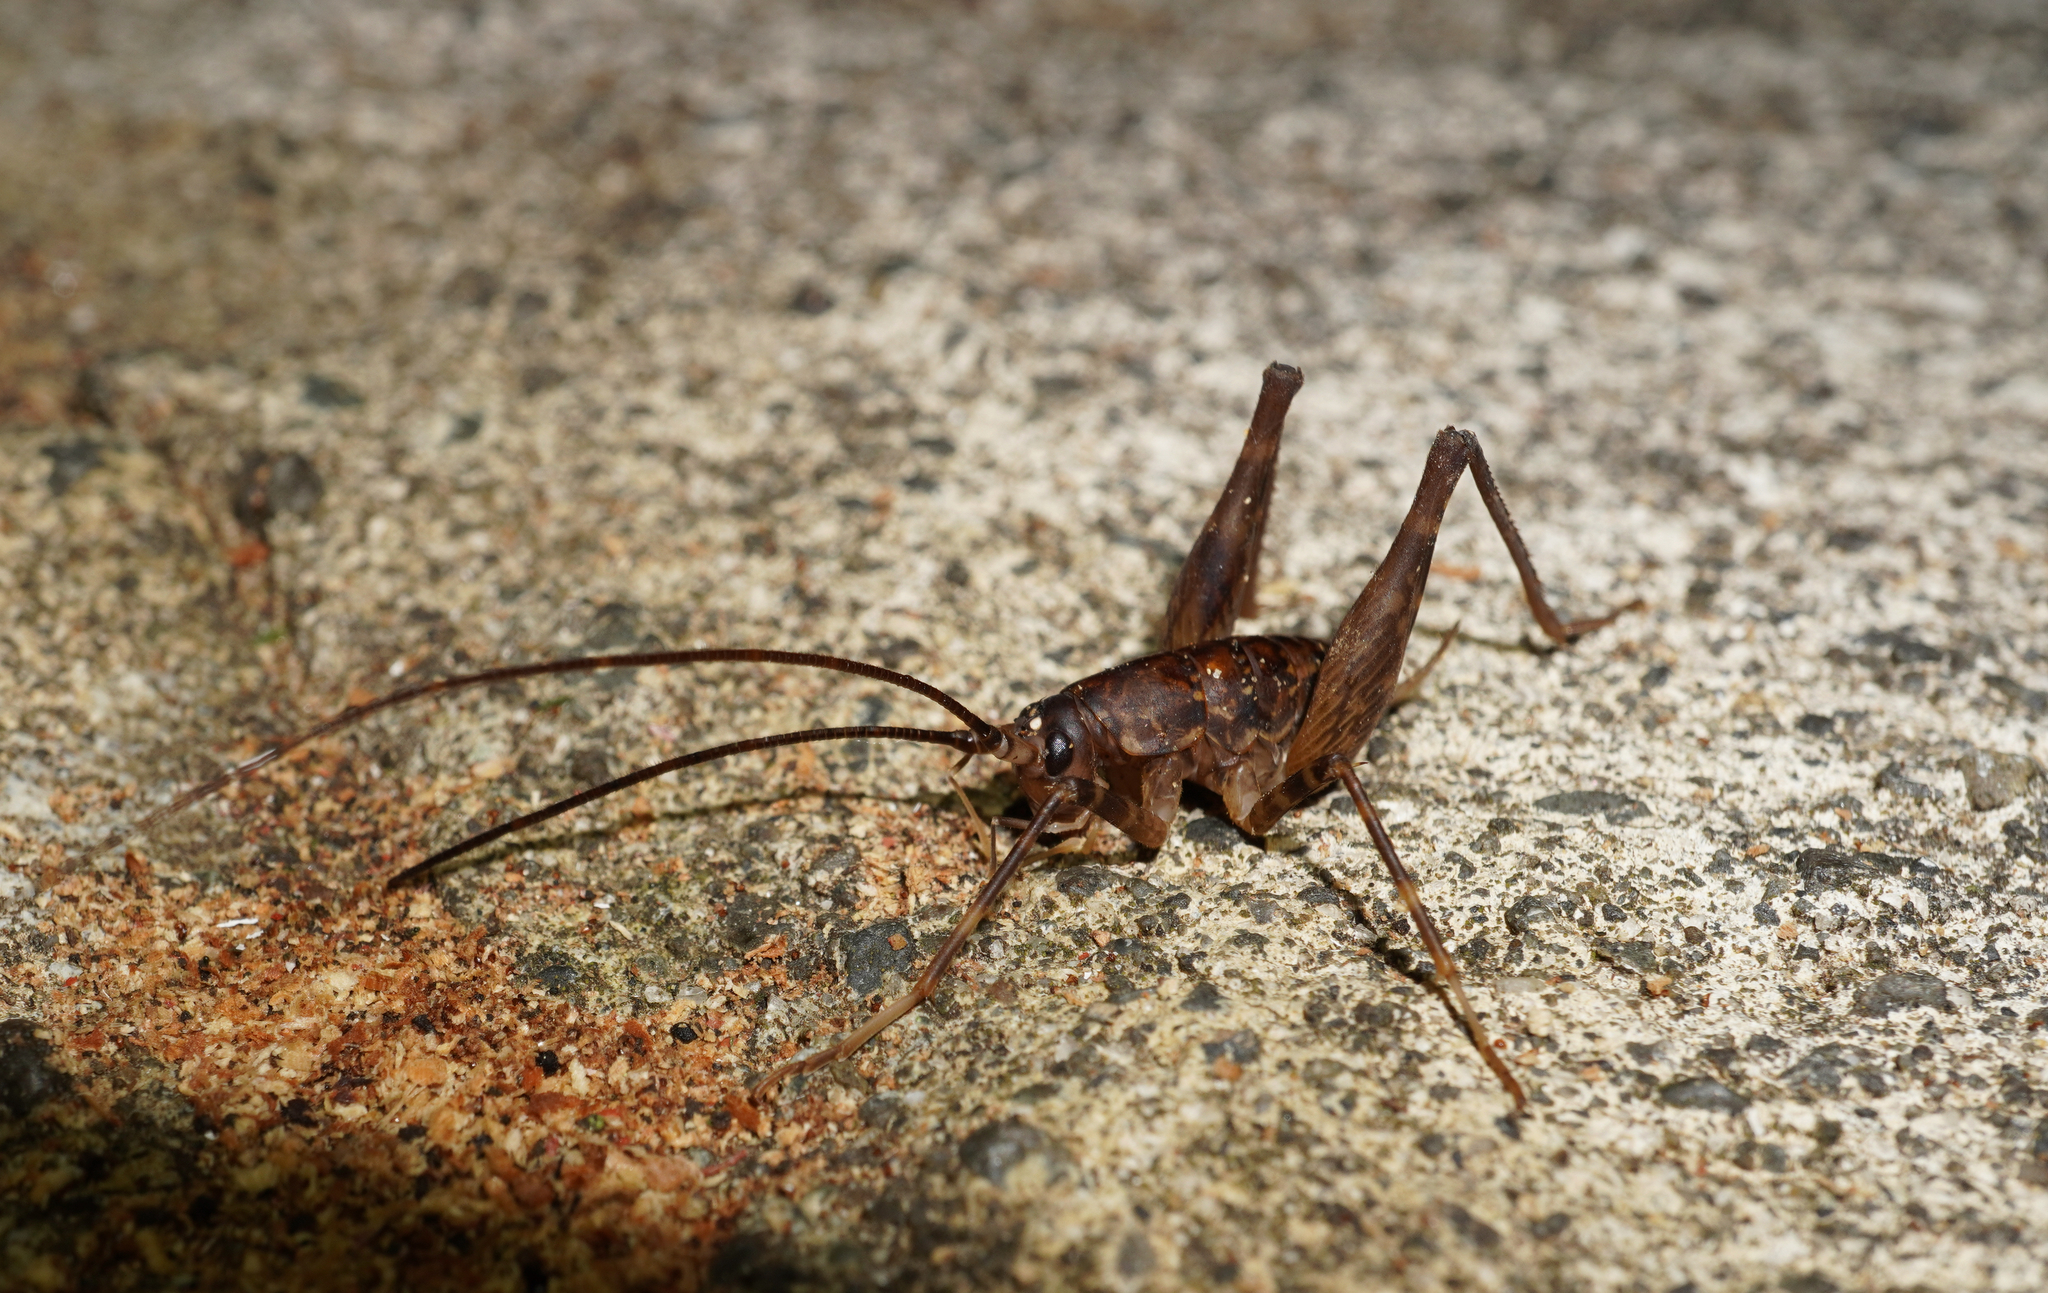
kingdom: Animalia
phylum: Arthropoda
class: Insecta
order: Orthoptera
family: Rhaphidophoridae
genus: Miotopus
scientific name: Miotopus diversus
